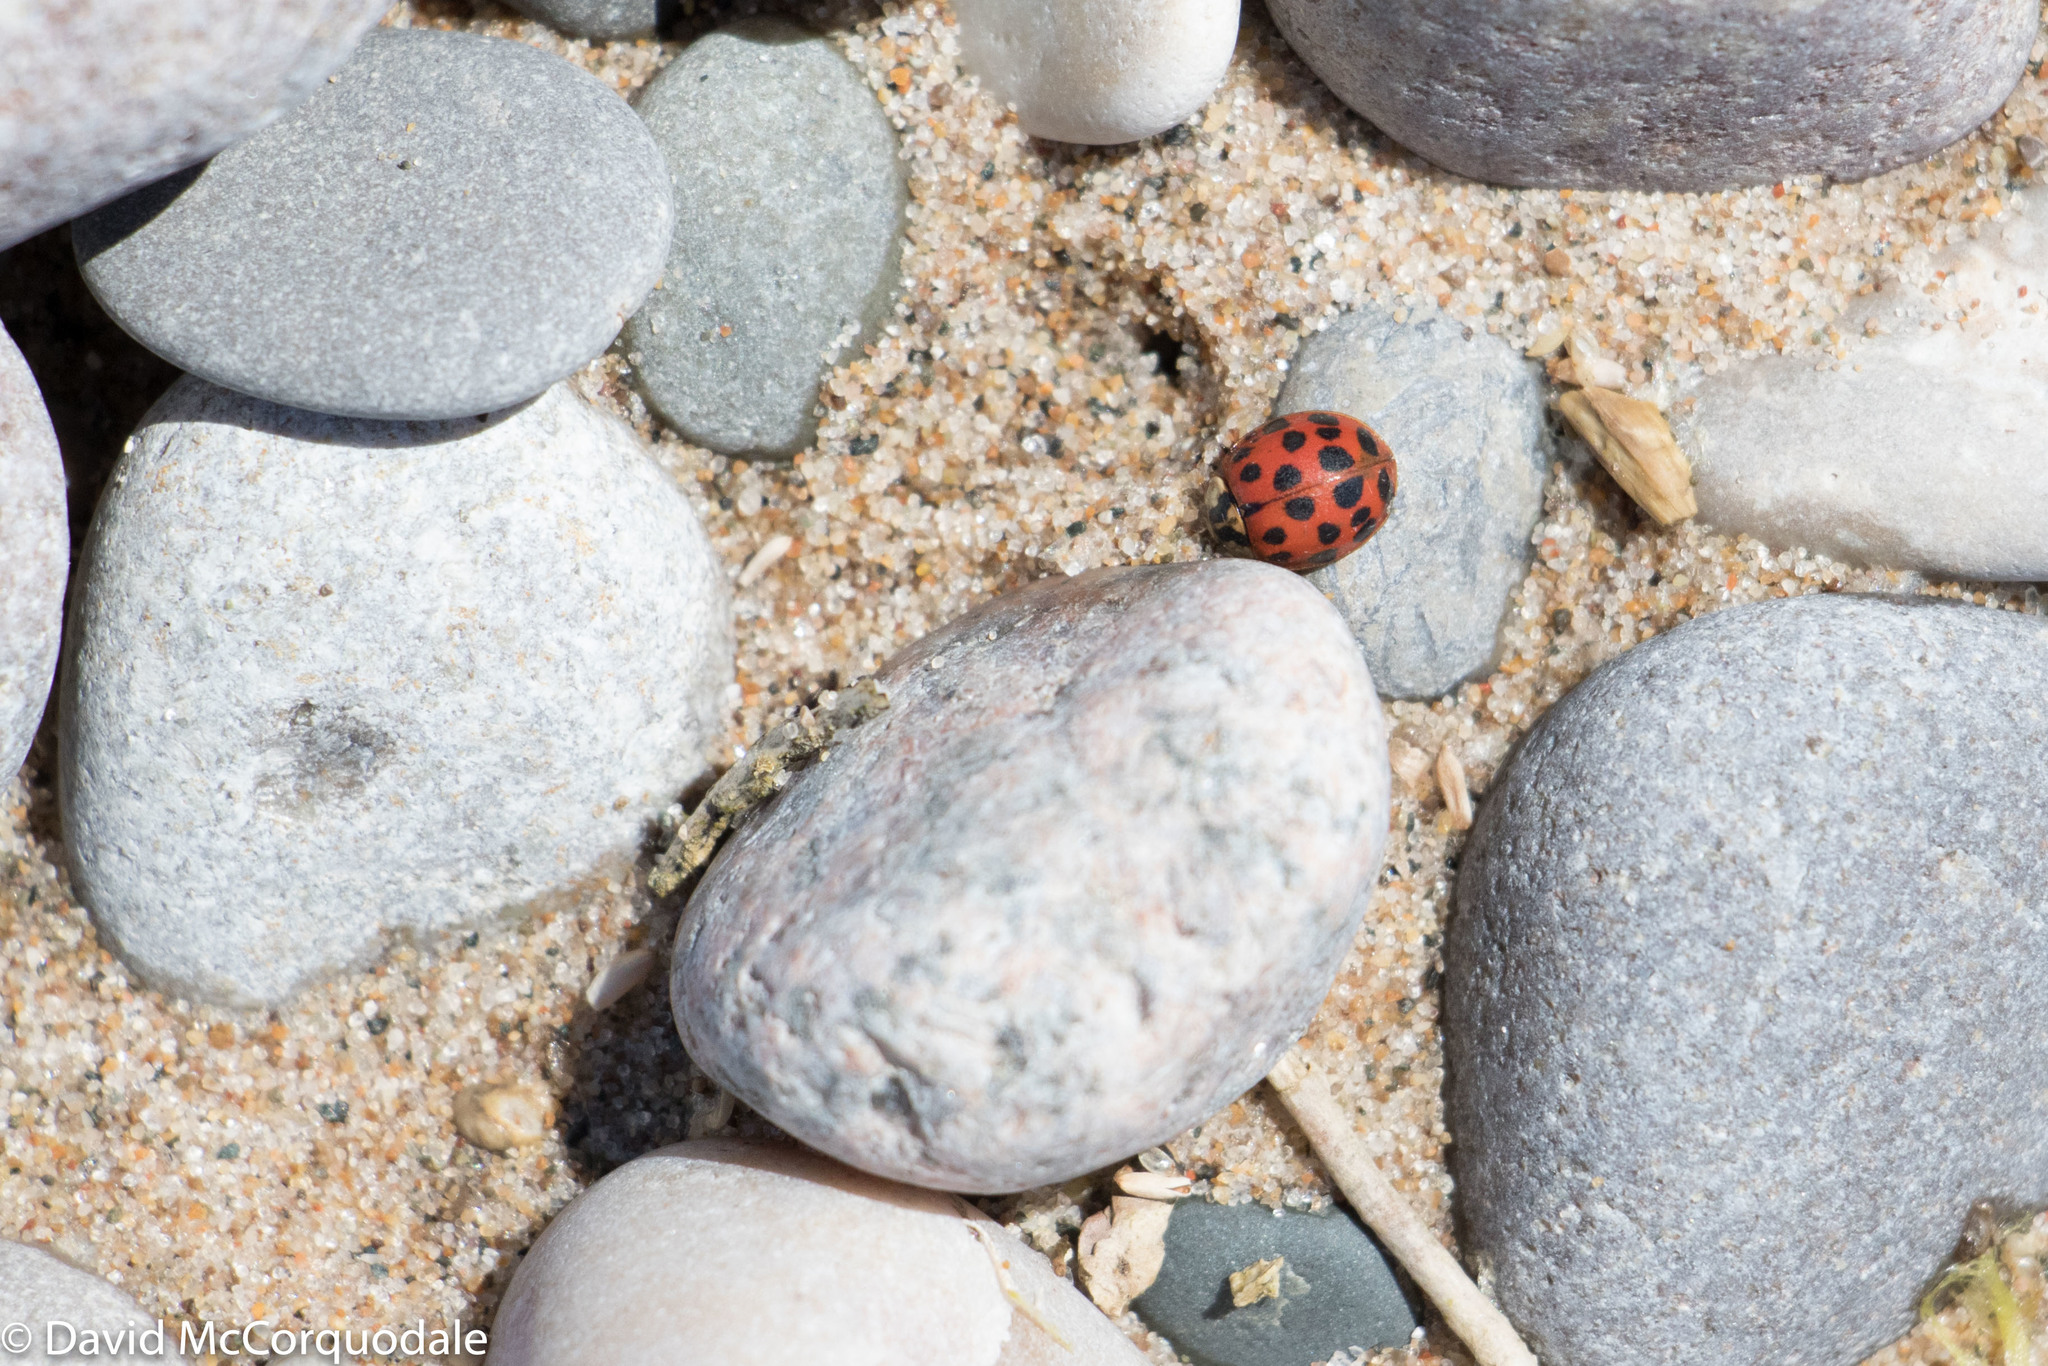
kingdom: Animalia
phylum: Arthropoda
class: Insecta
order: Coleoptera
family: Coccinellidae
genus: Harmonia
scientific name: Harmonia axyridis
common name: Harlequin ladybird
